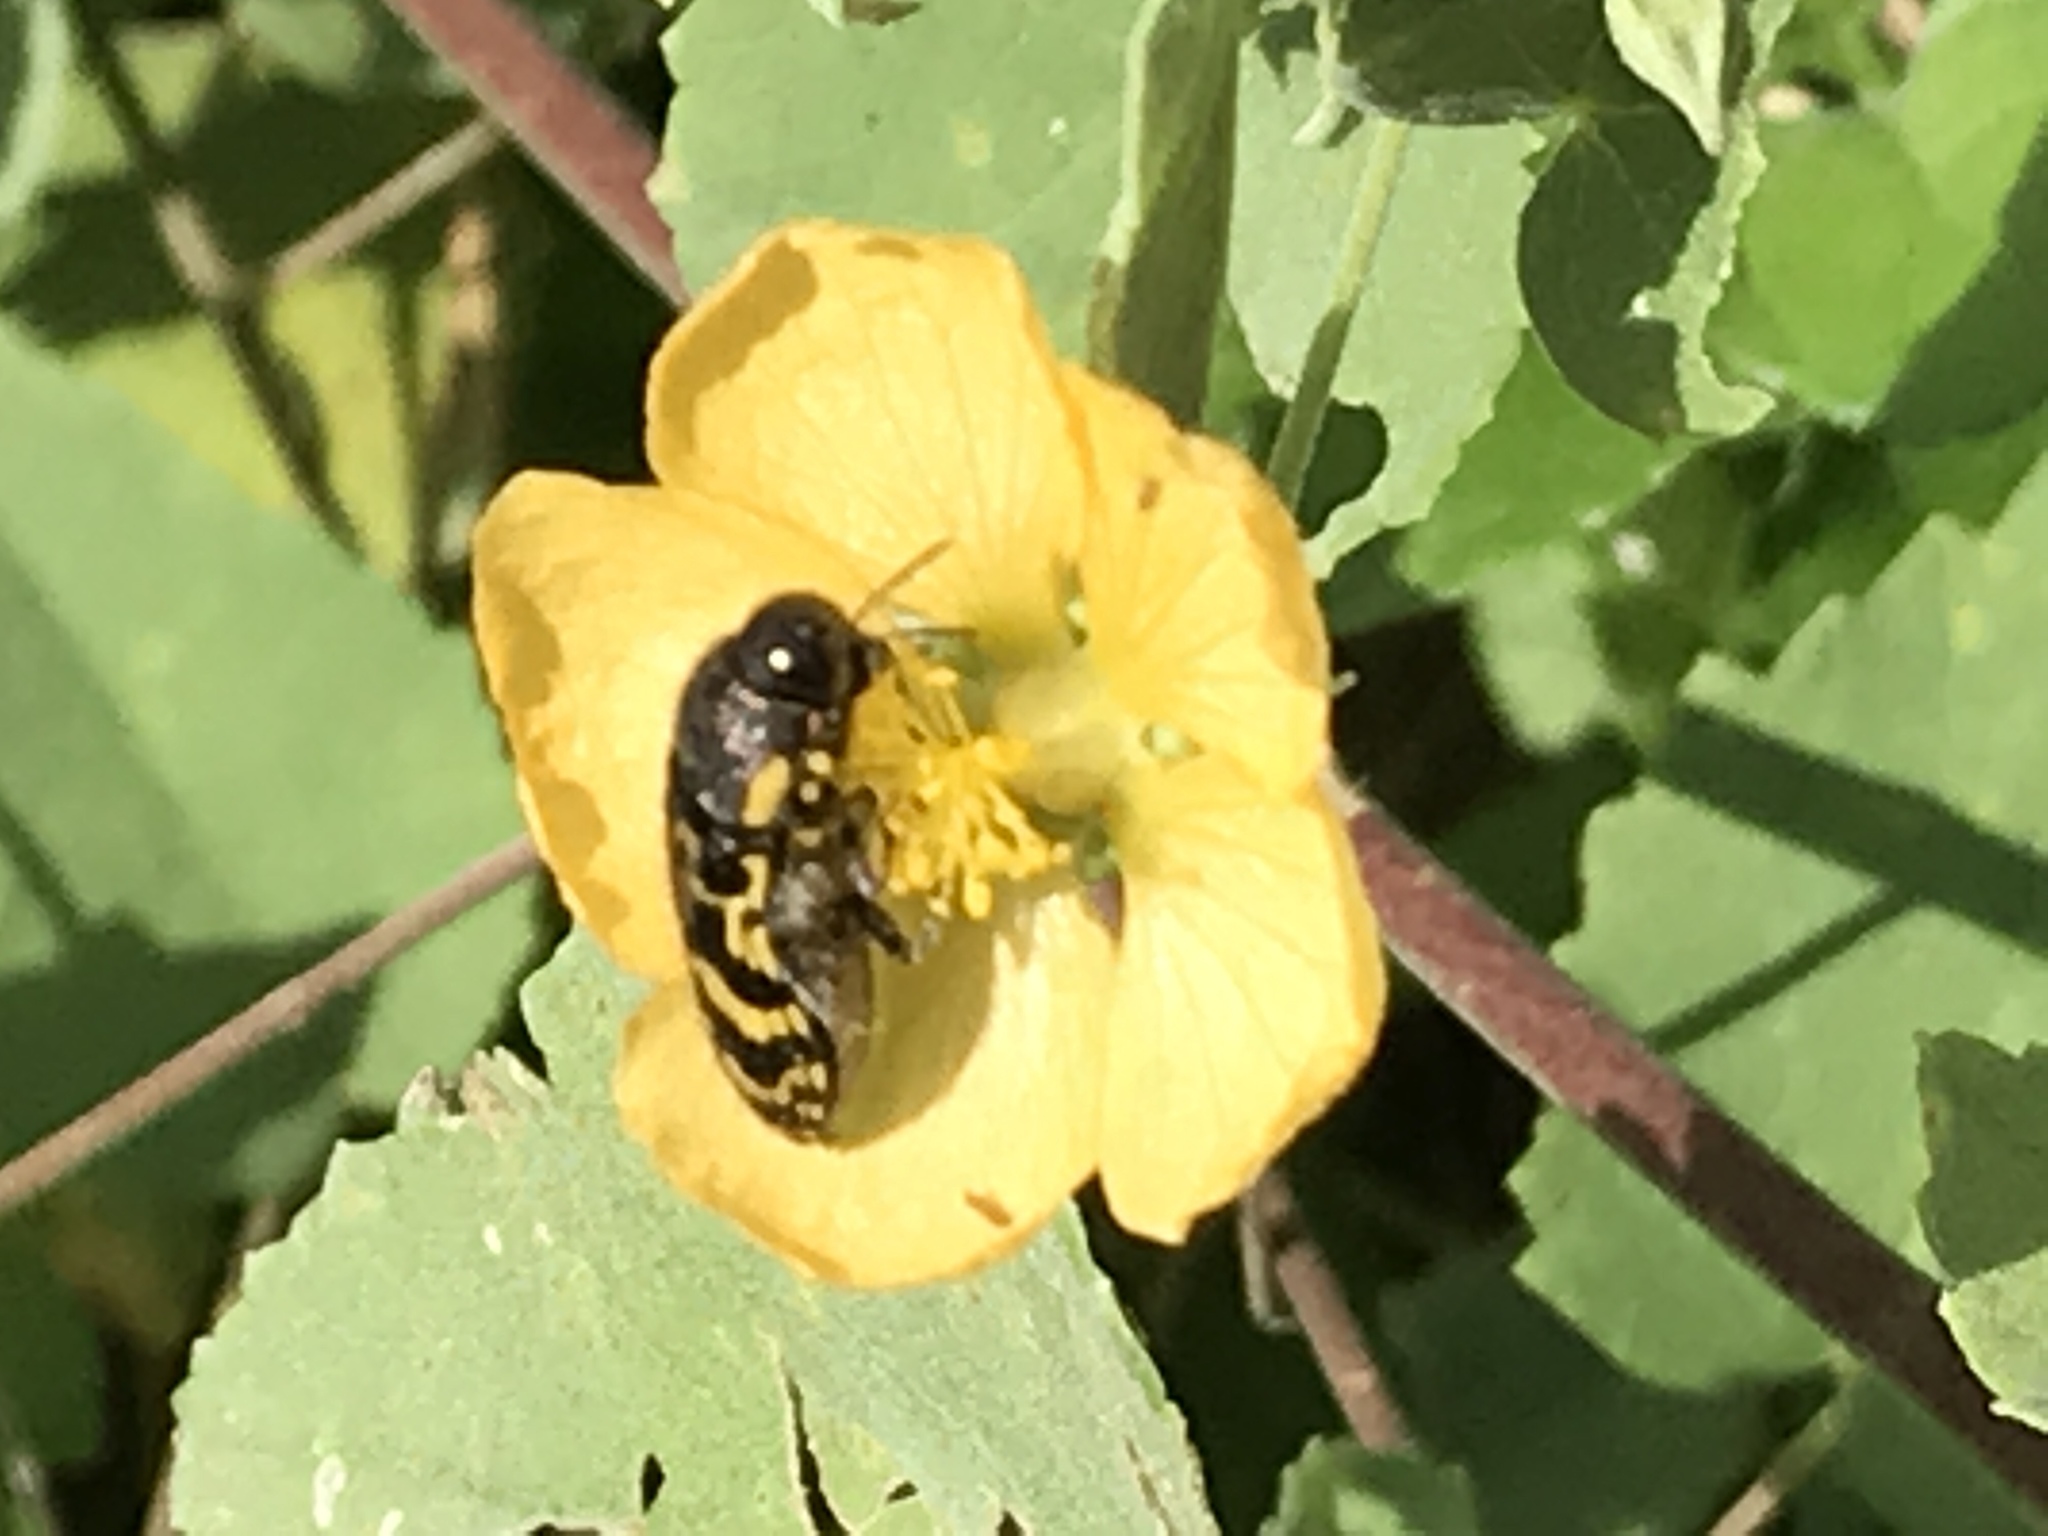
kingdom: Animalia
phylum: Arthropoda
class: Insecta
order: Coleoptera
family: Buprestidae
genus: Acmaeodera
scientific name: Acmaeodera mixta
